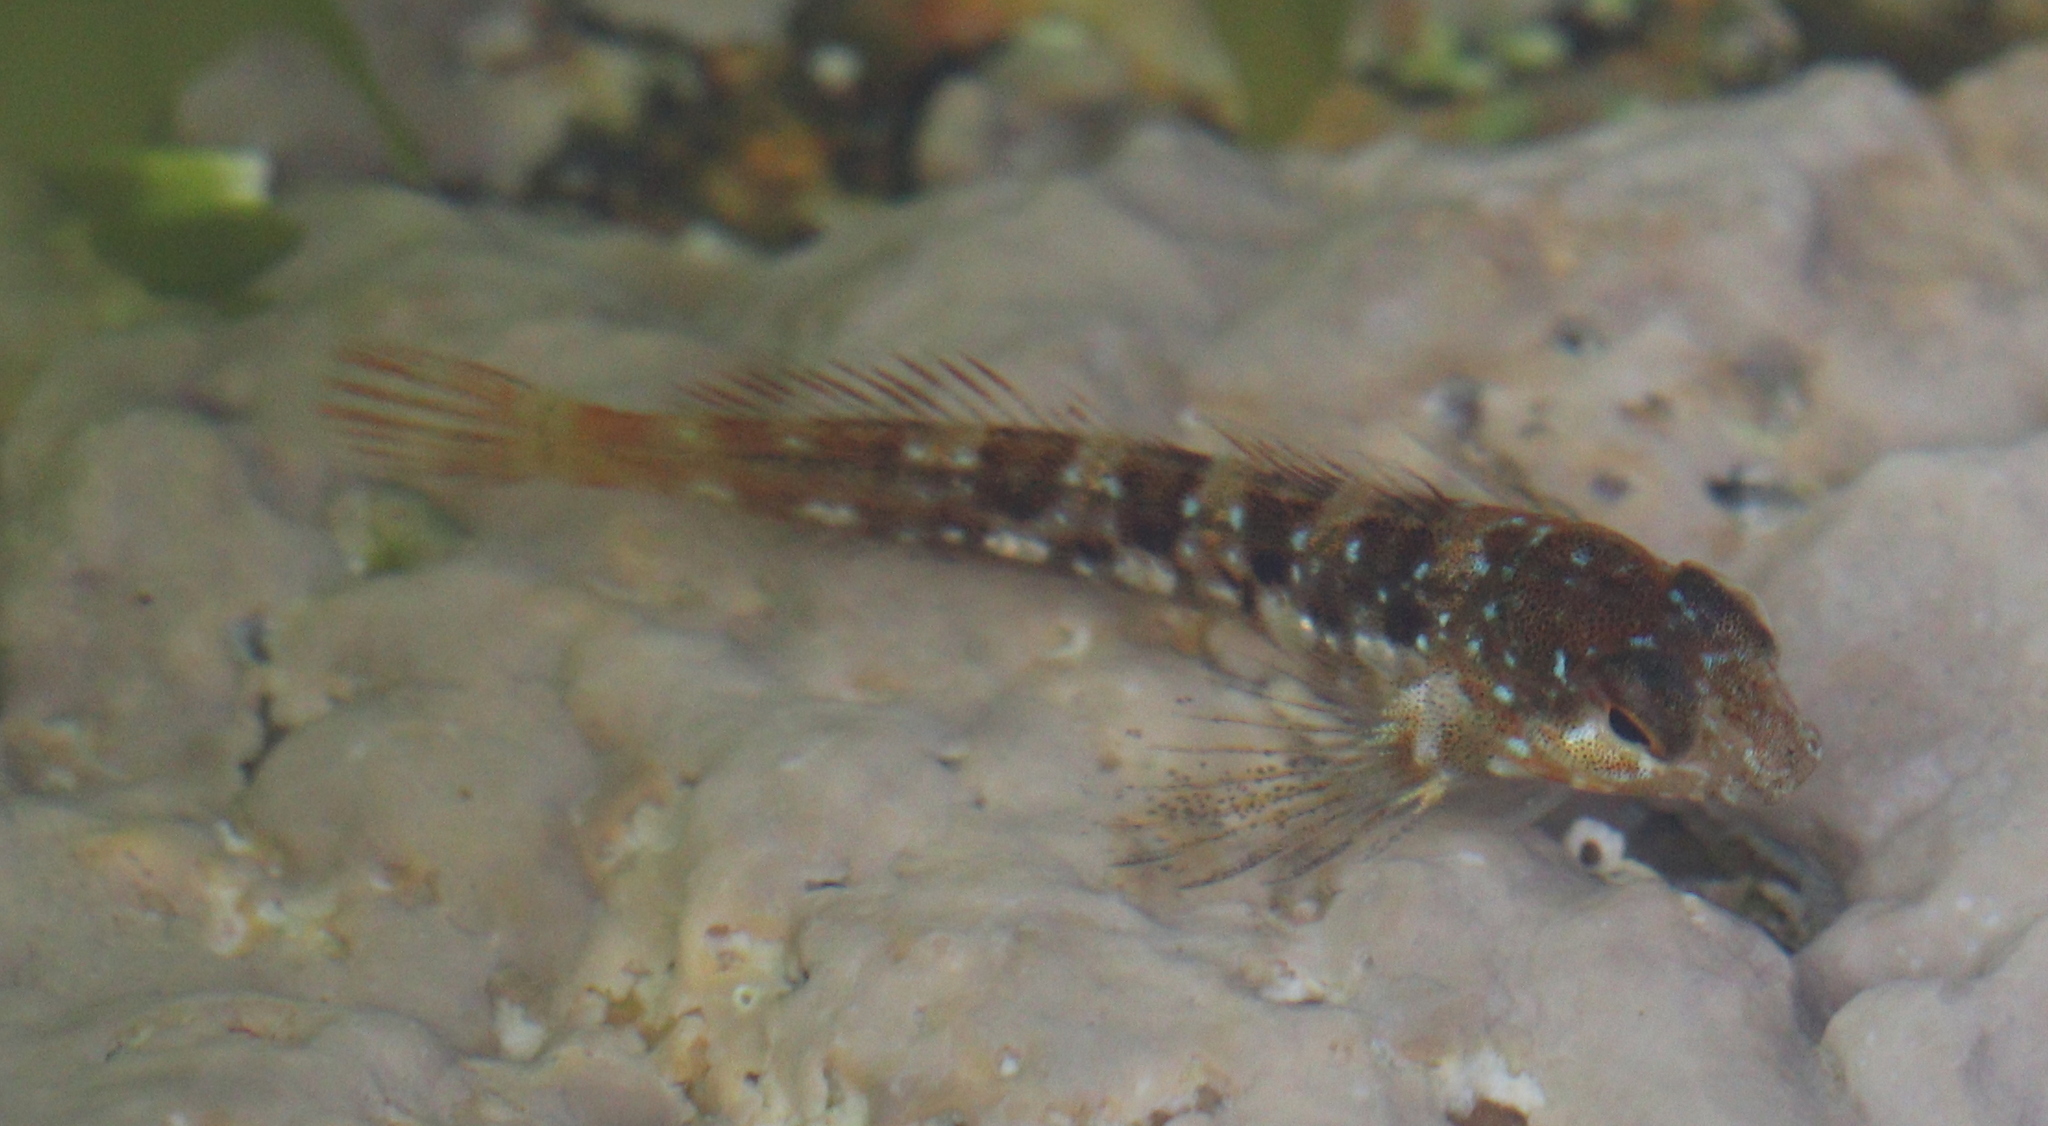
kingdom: Animalia
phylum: Chordata
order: Perciformes
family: Blenniidae
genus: Lipophrys
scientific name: Lipophrys pholis
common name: Shanny
